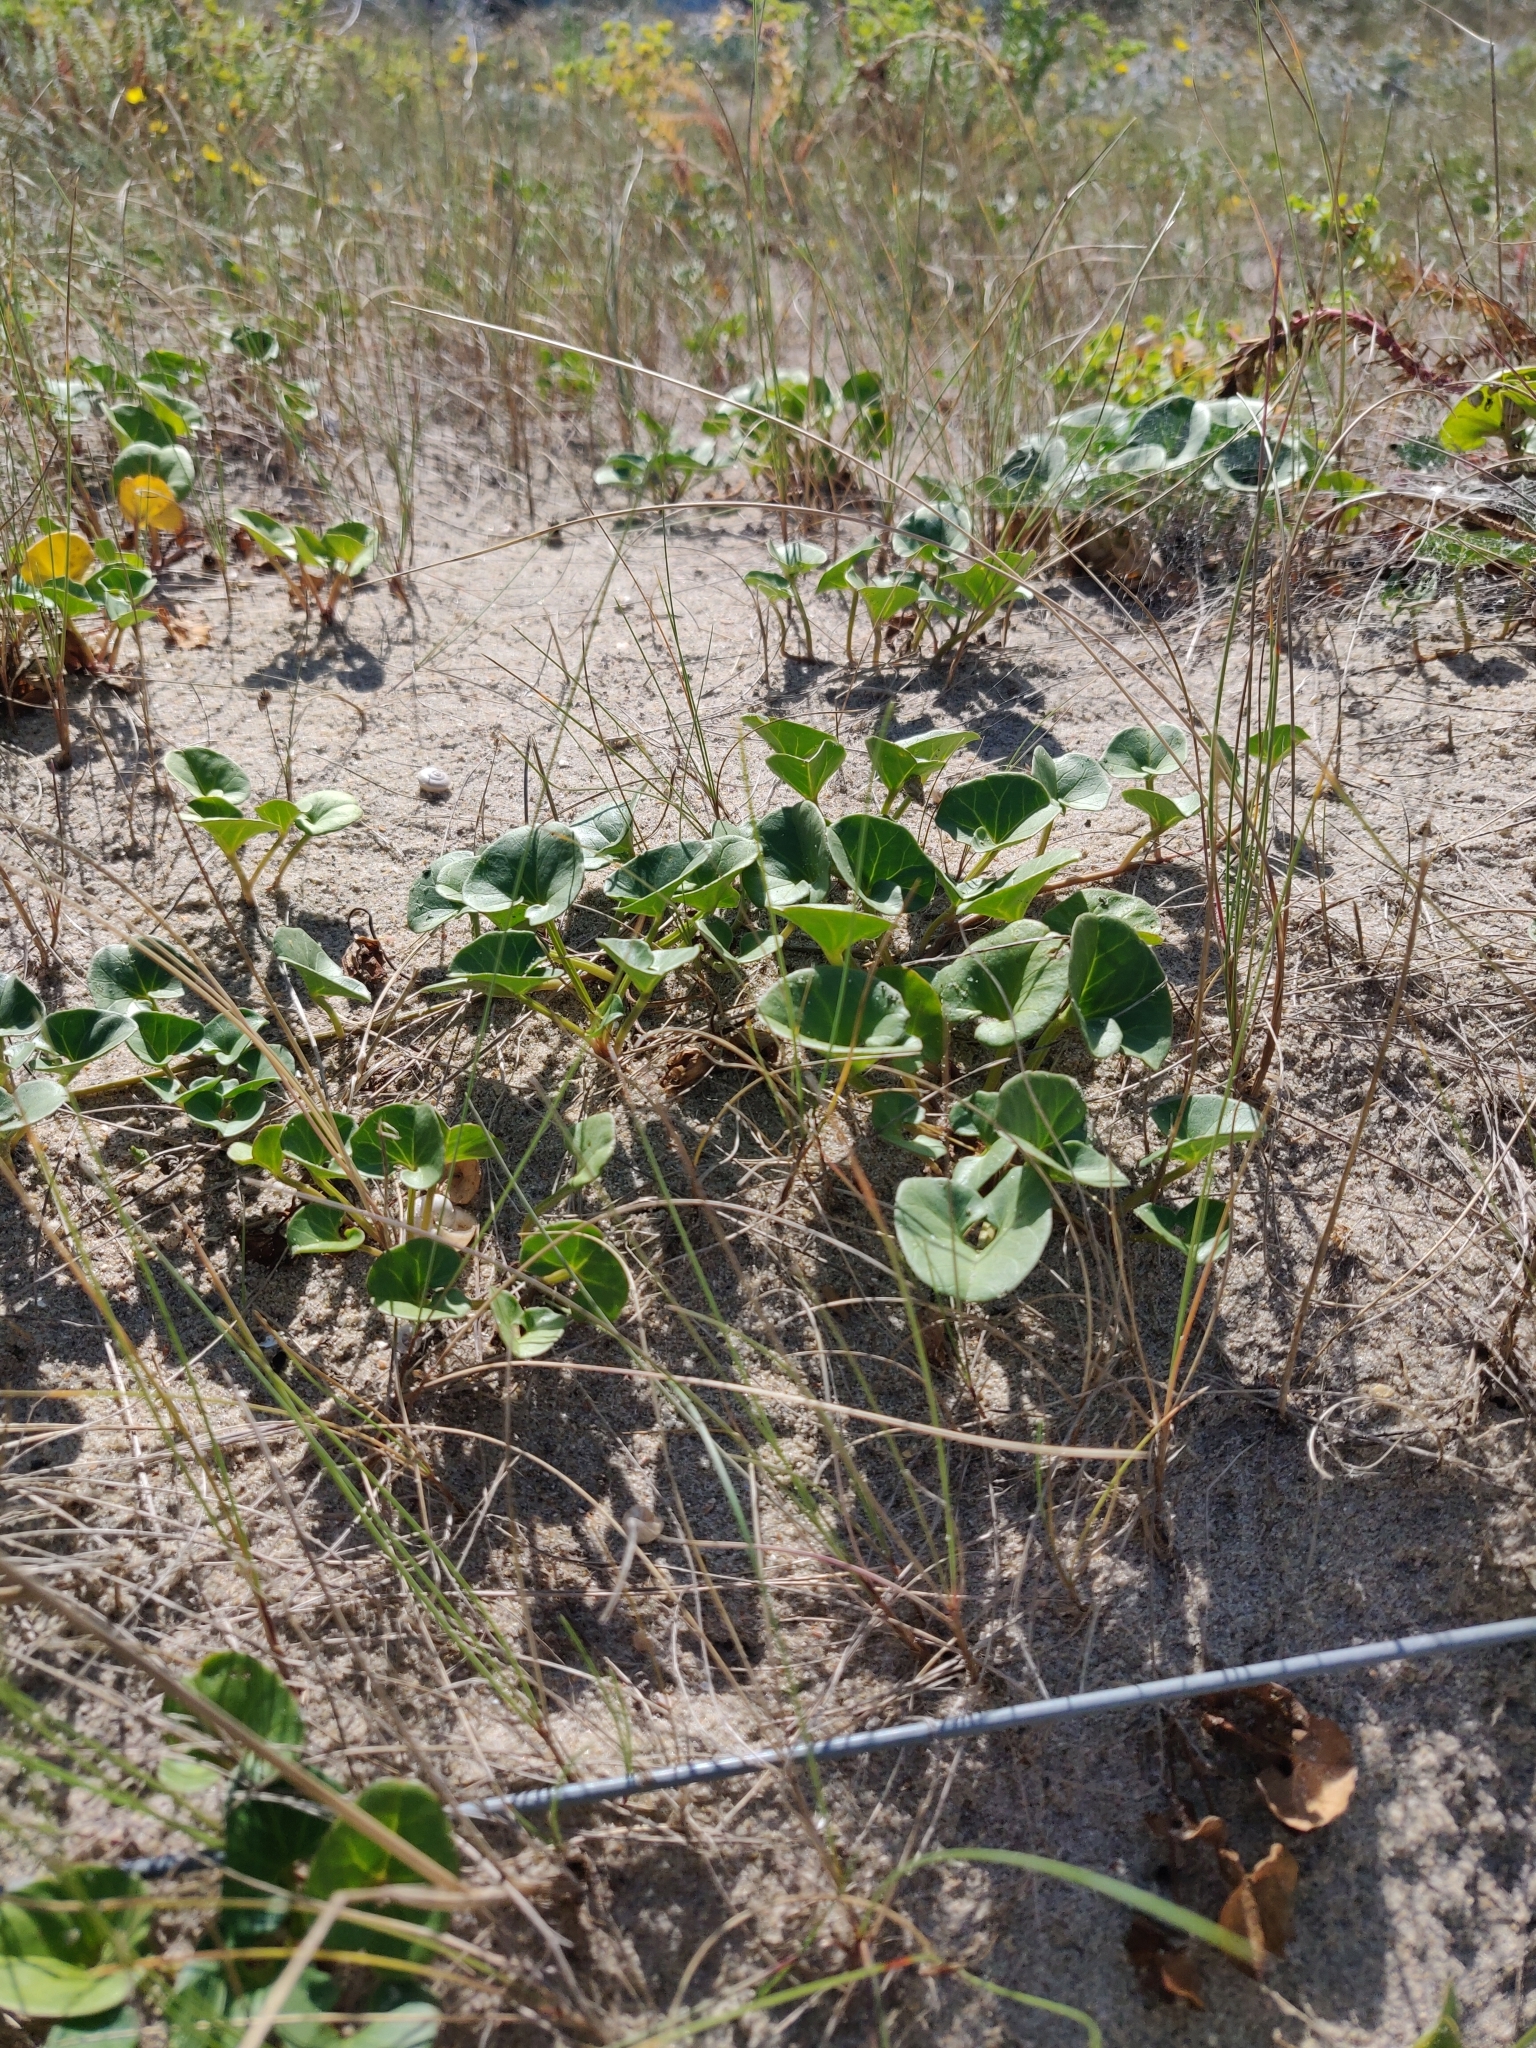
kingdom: Plantae
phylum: Tracheophyta
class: Magnoliopsida
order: Solanales
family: Convolvulaceae
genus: Calystegia
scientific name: Calystegia soldanella
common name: Sea bindweed
